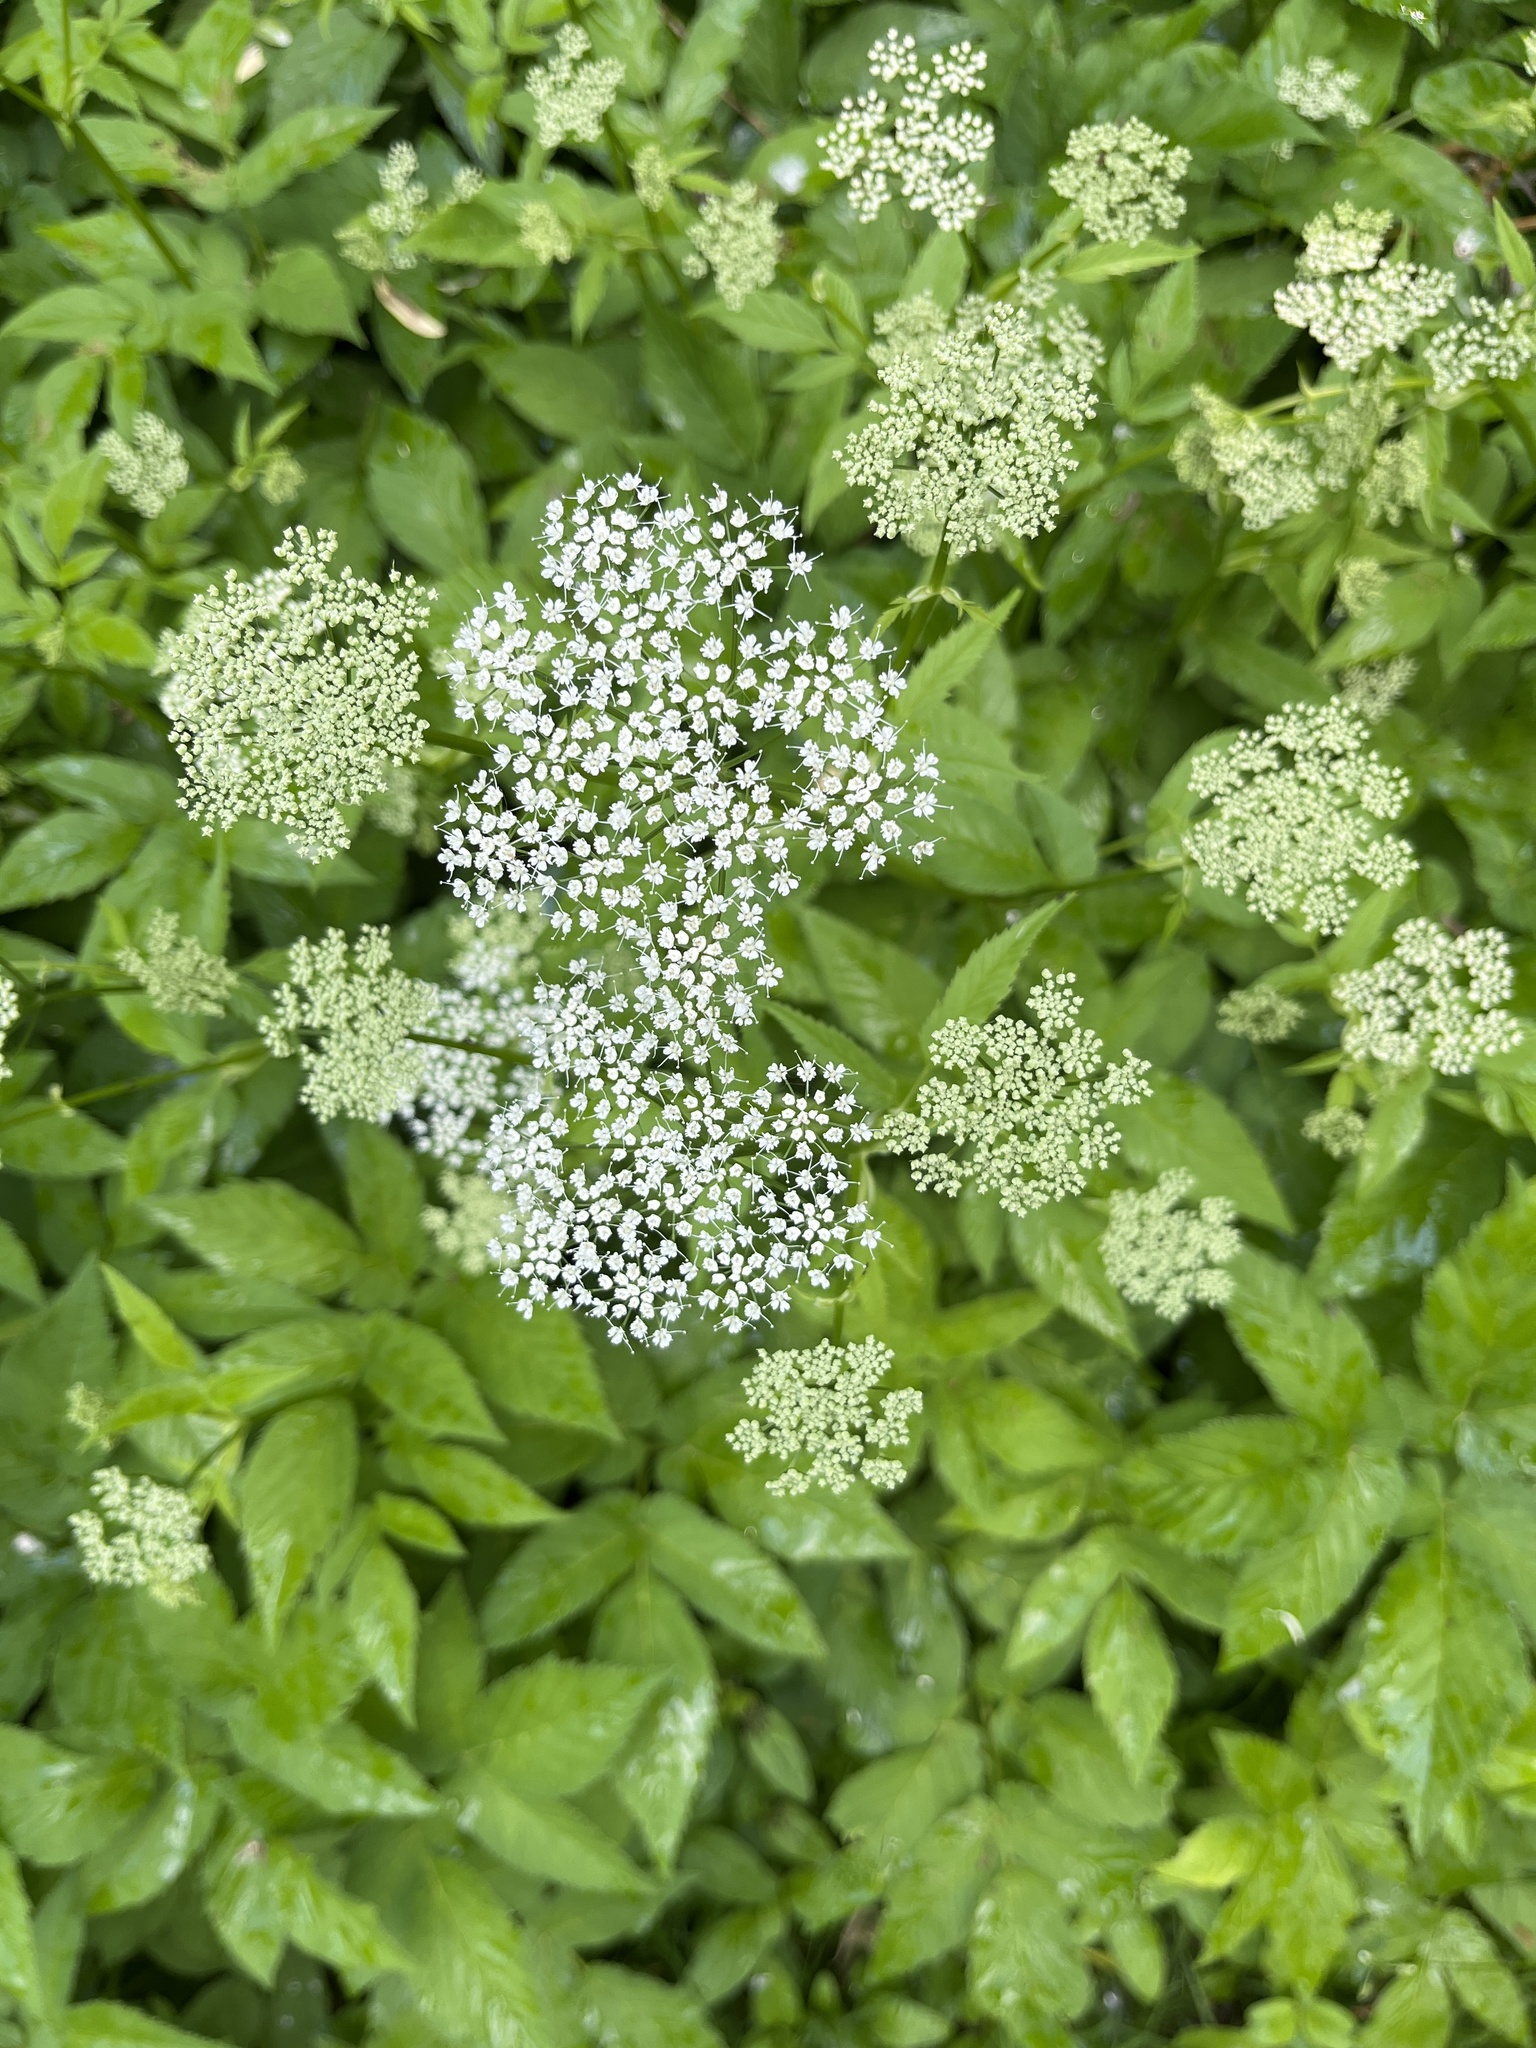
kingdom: Plantae
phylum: Tracheophyta
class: Magnoliopsida
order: Apiales
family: Apiaceae
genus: Aegopodium
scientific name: Aegopodium podagraria
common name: Ground-elder
